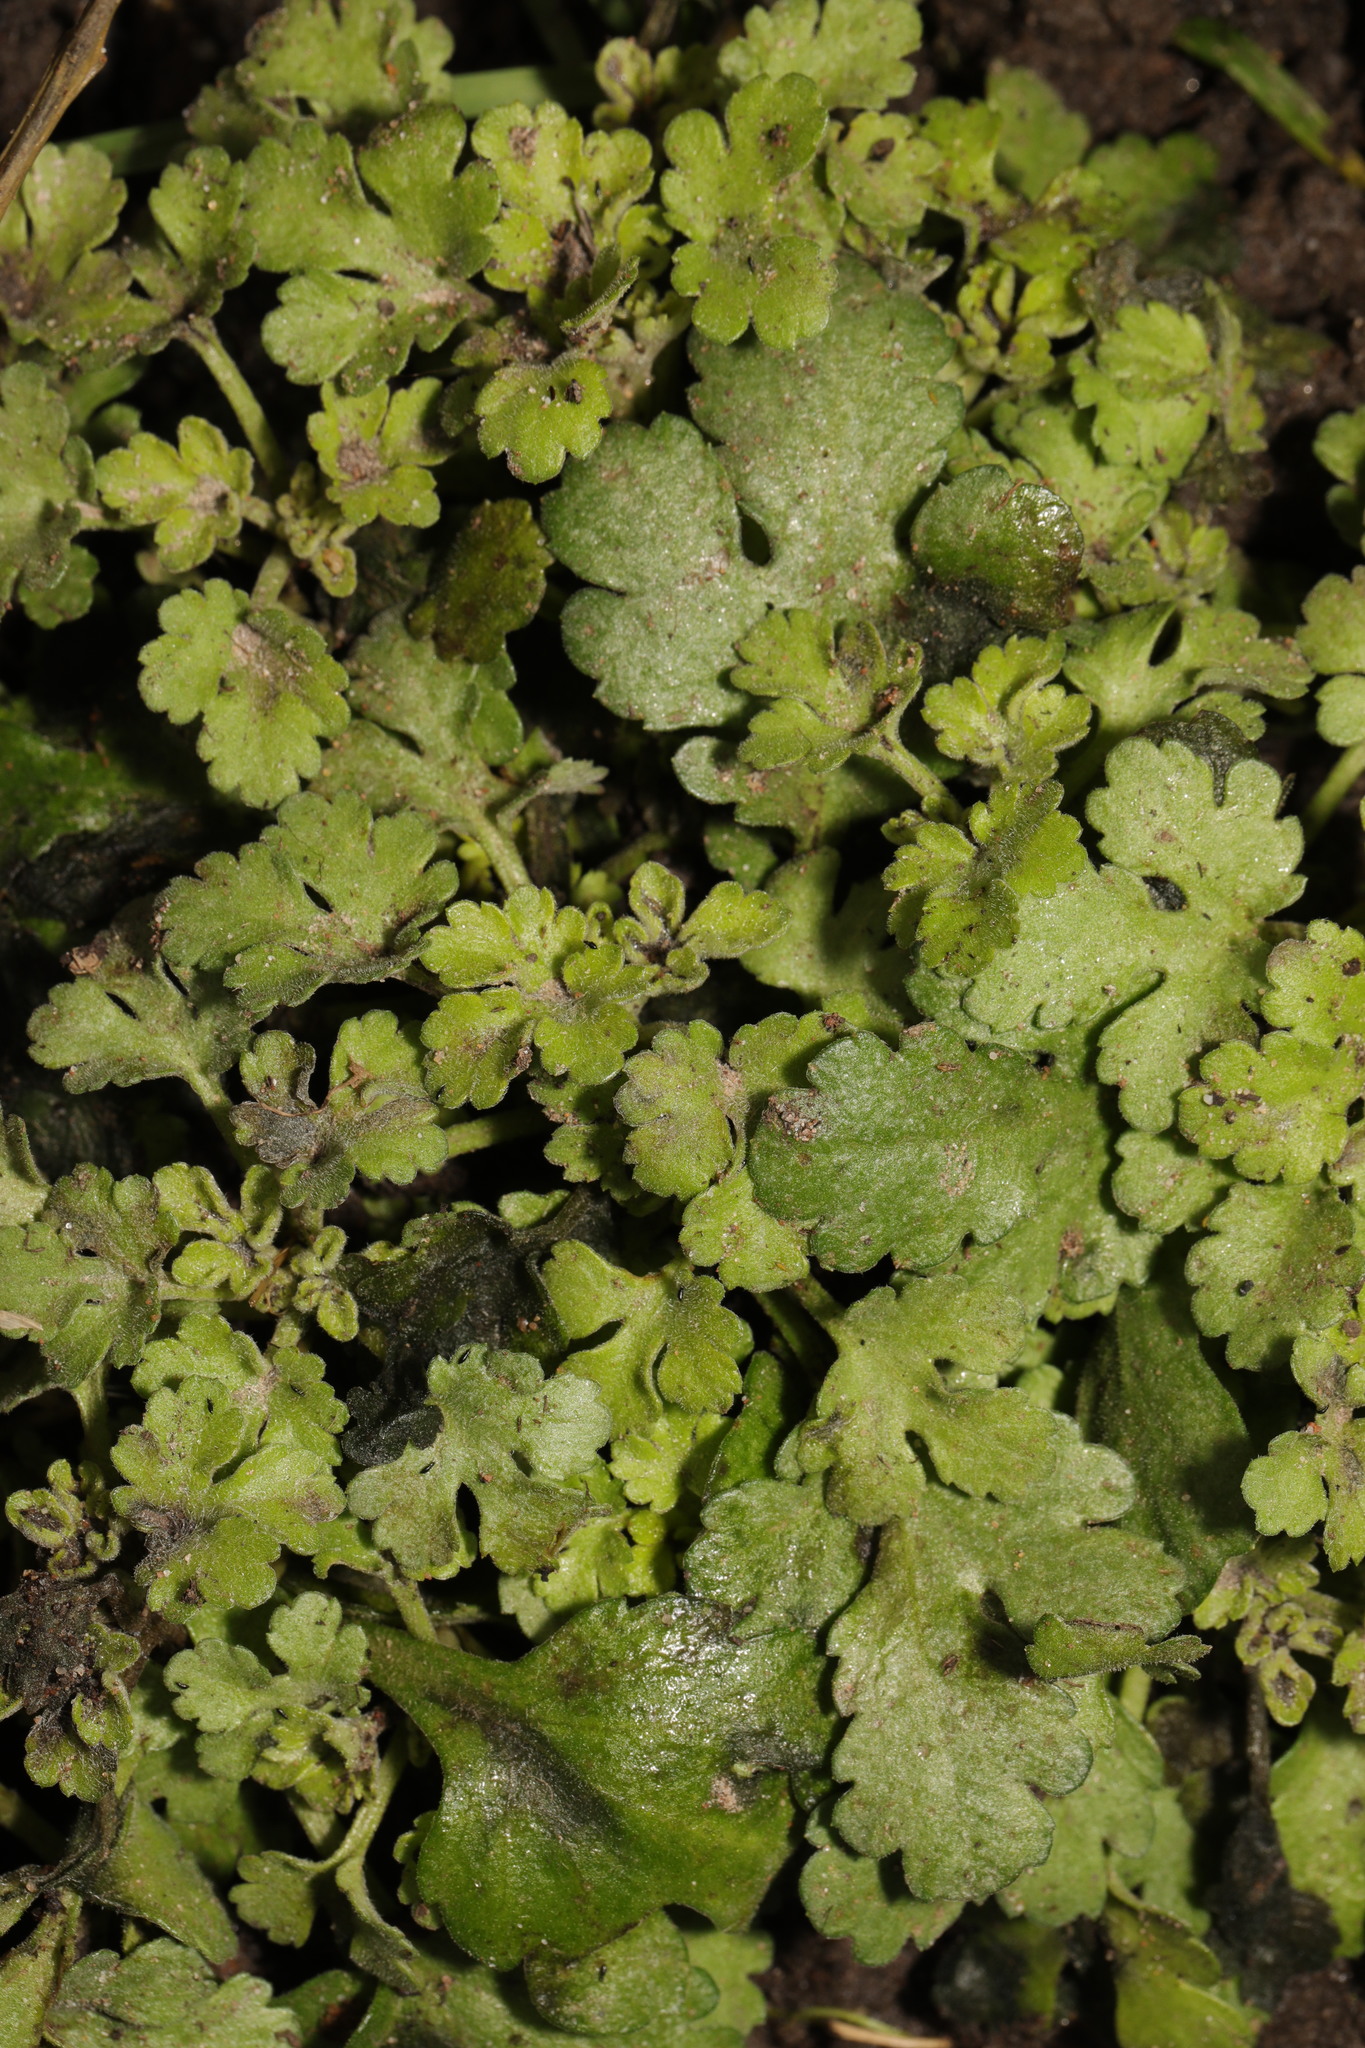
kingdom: Plantae
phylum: Tracheophyta
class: Magnoliopsida
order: Asterales
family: Asteraceae
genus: Tanacetum
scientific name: Tanacetum parthenium
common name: Feverfew
